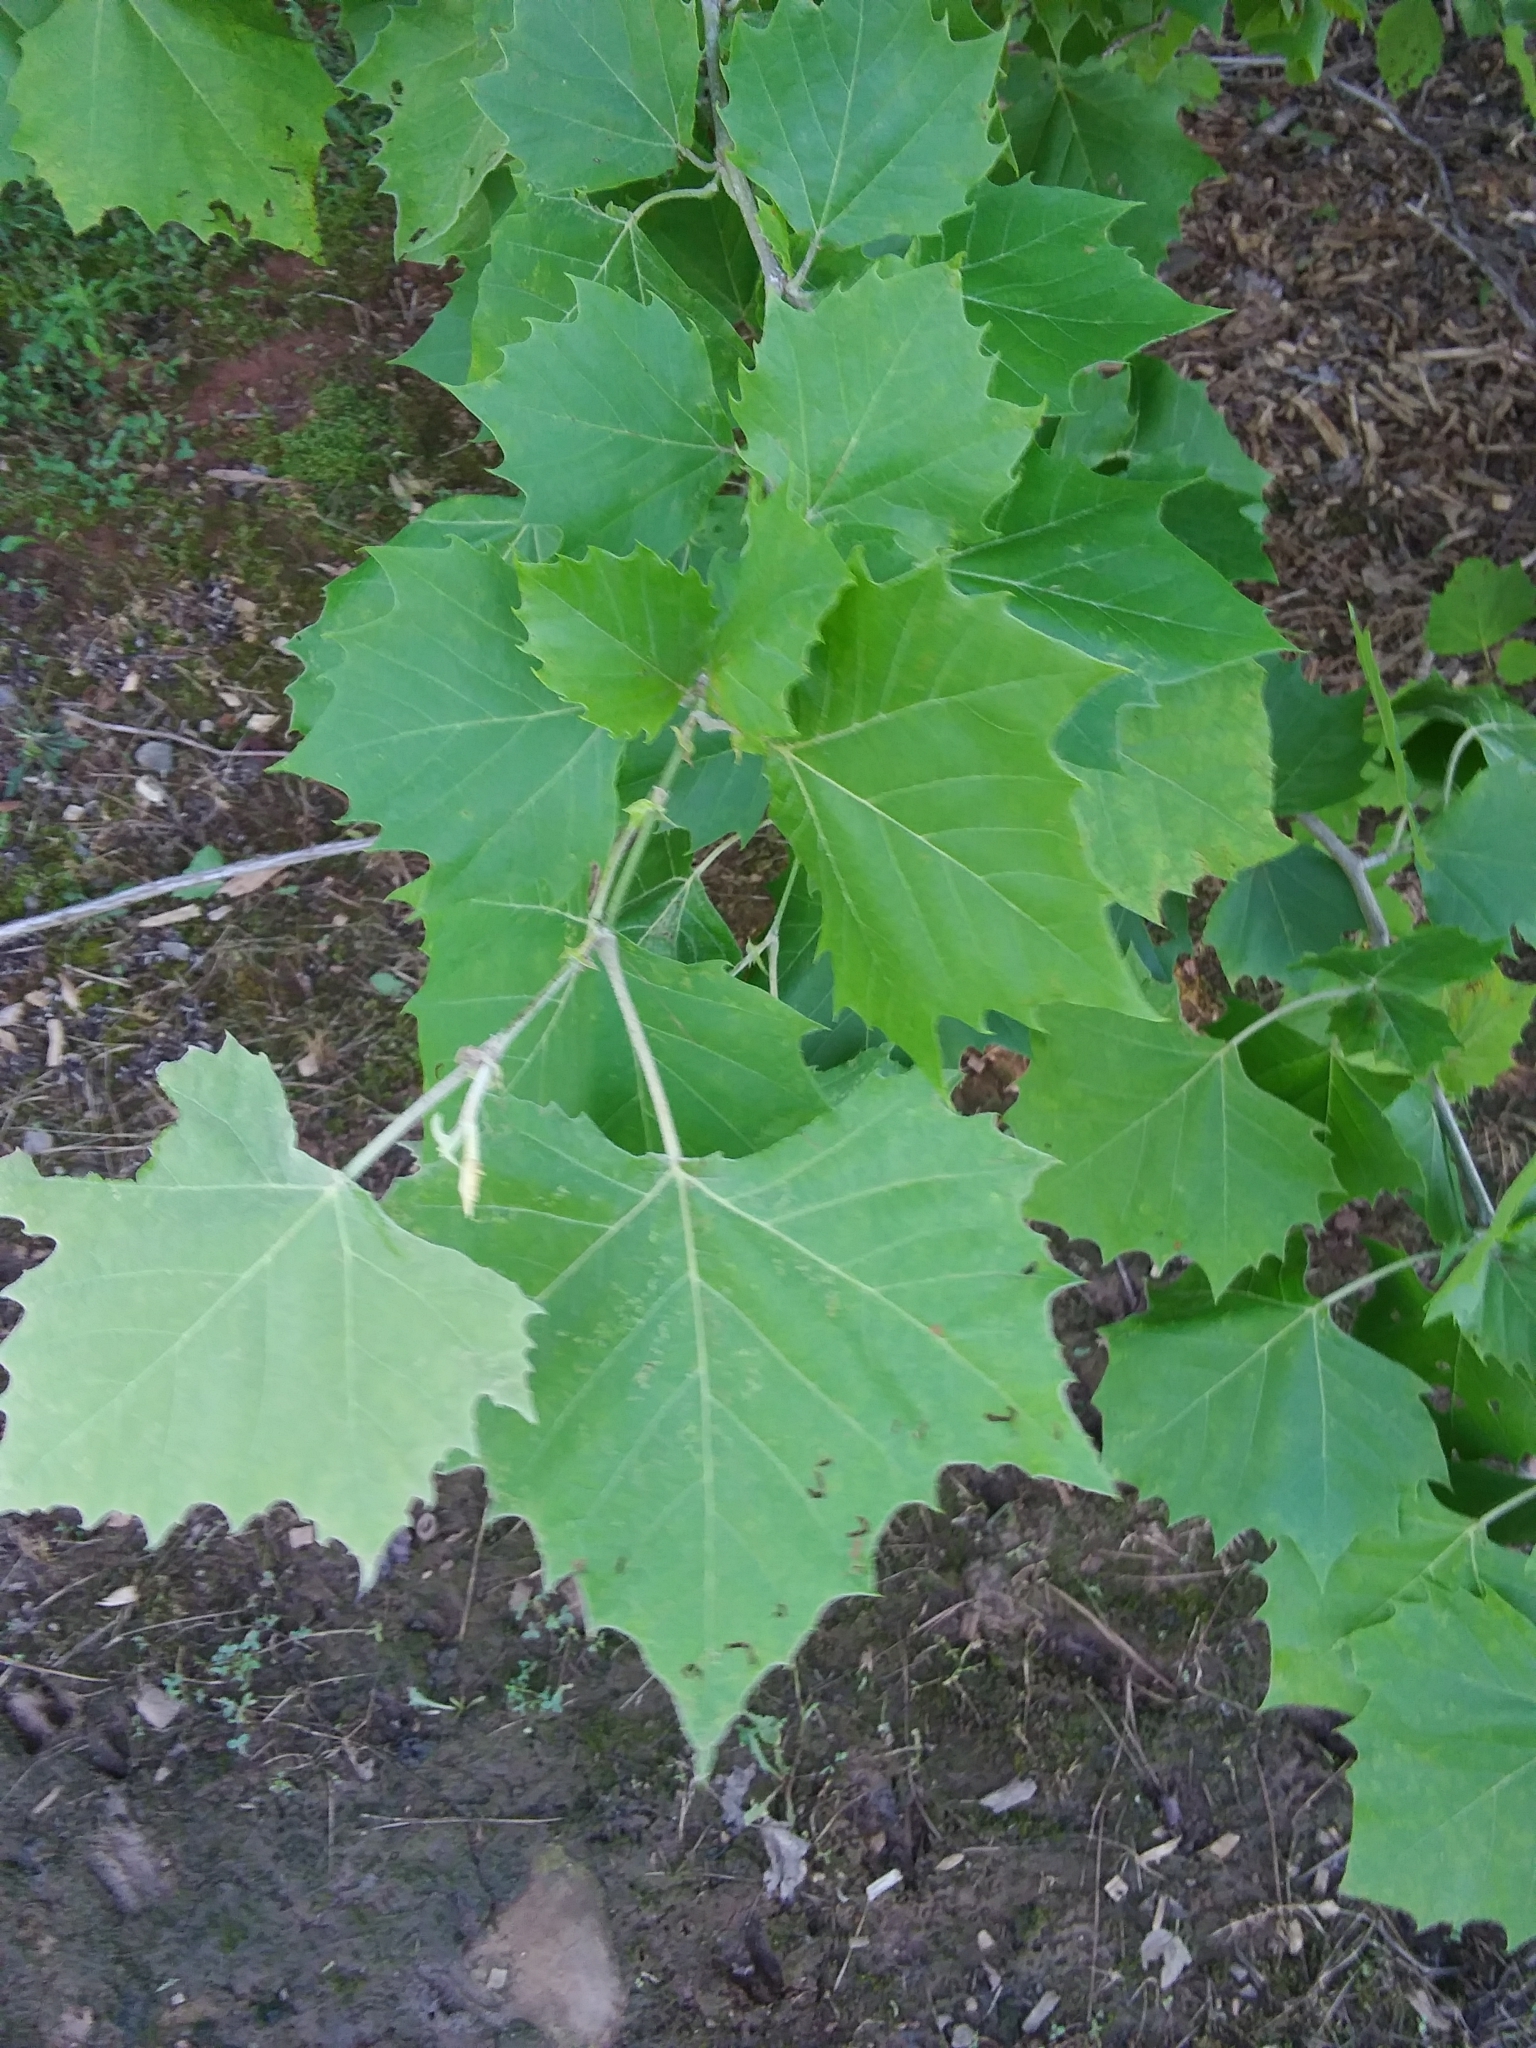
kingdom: Plantae
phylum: Tracheophyta
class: Magnoliopsida
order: Proteales
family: Platanaceae
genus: Platanus
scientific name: Platanus occidentalis
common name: American sycamore
